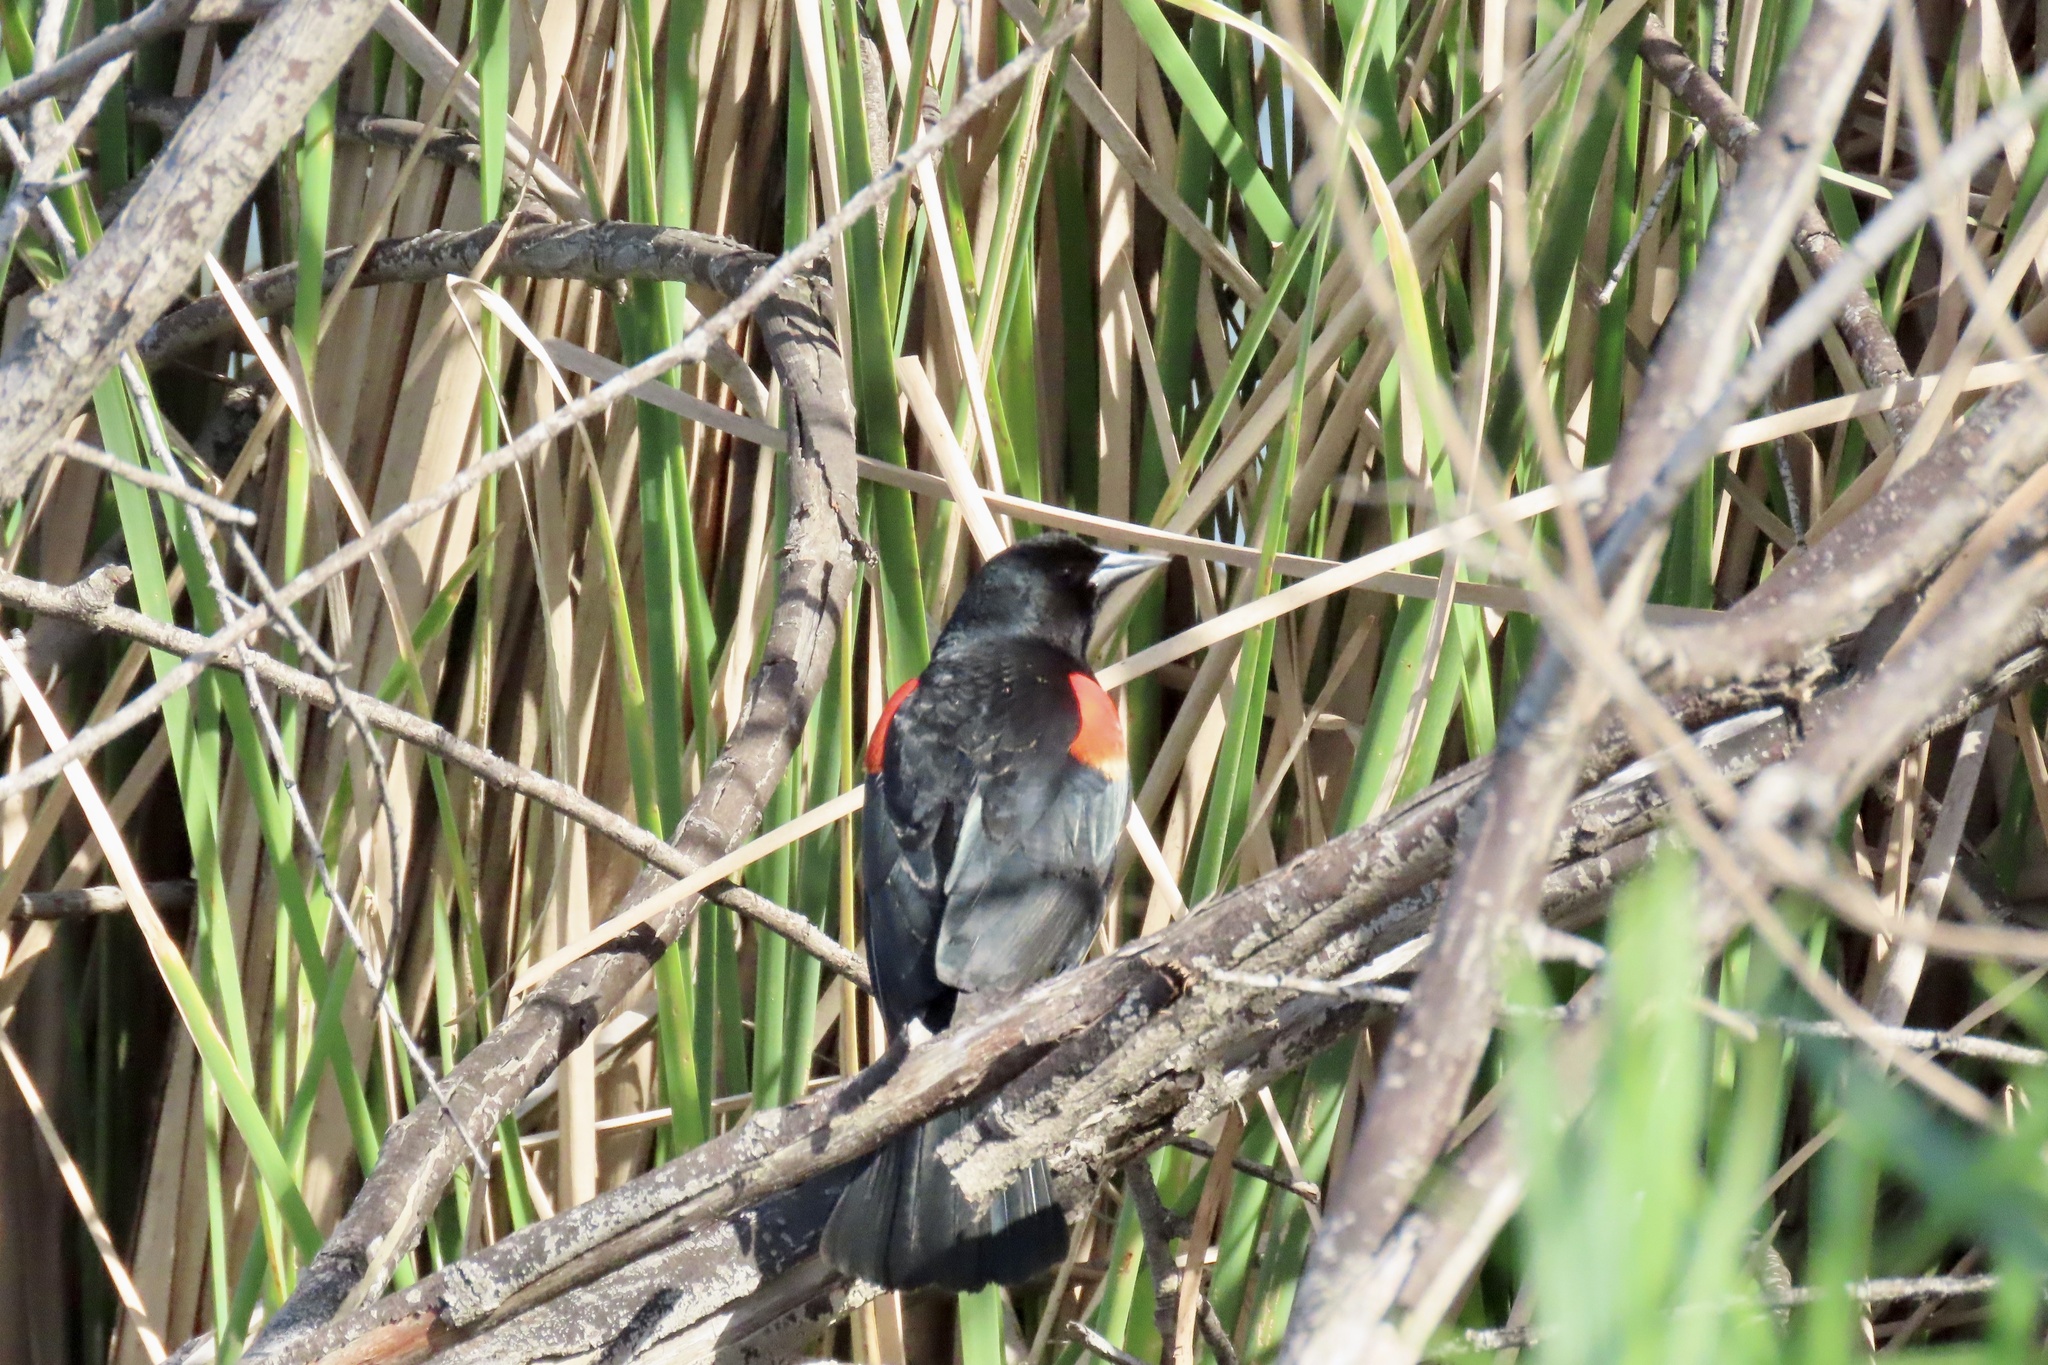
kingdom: Animalia
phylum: Chordata
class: Aves
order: Passeriformes
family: Icteridae
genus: Agelaius
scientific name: Agelaius phoeniceus
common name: Red-winged blackbird
